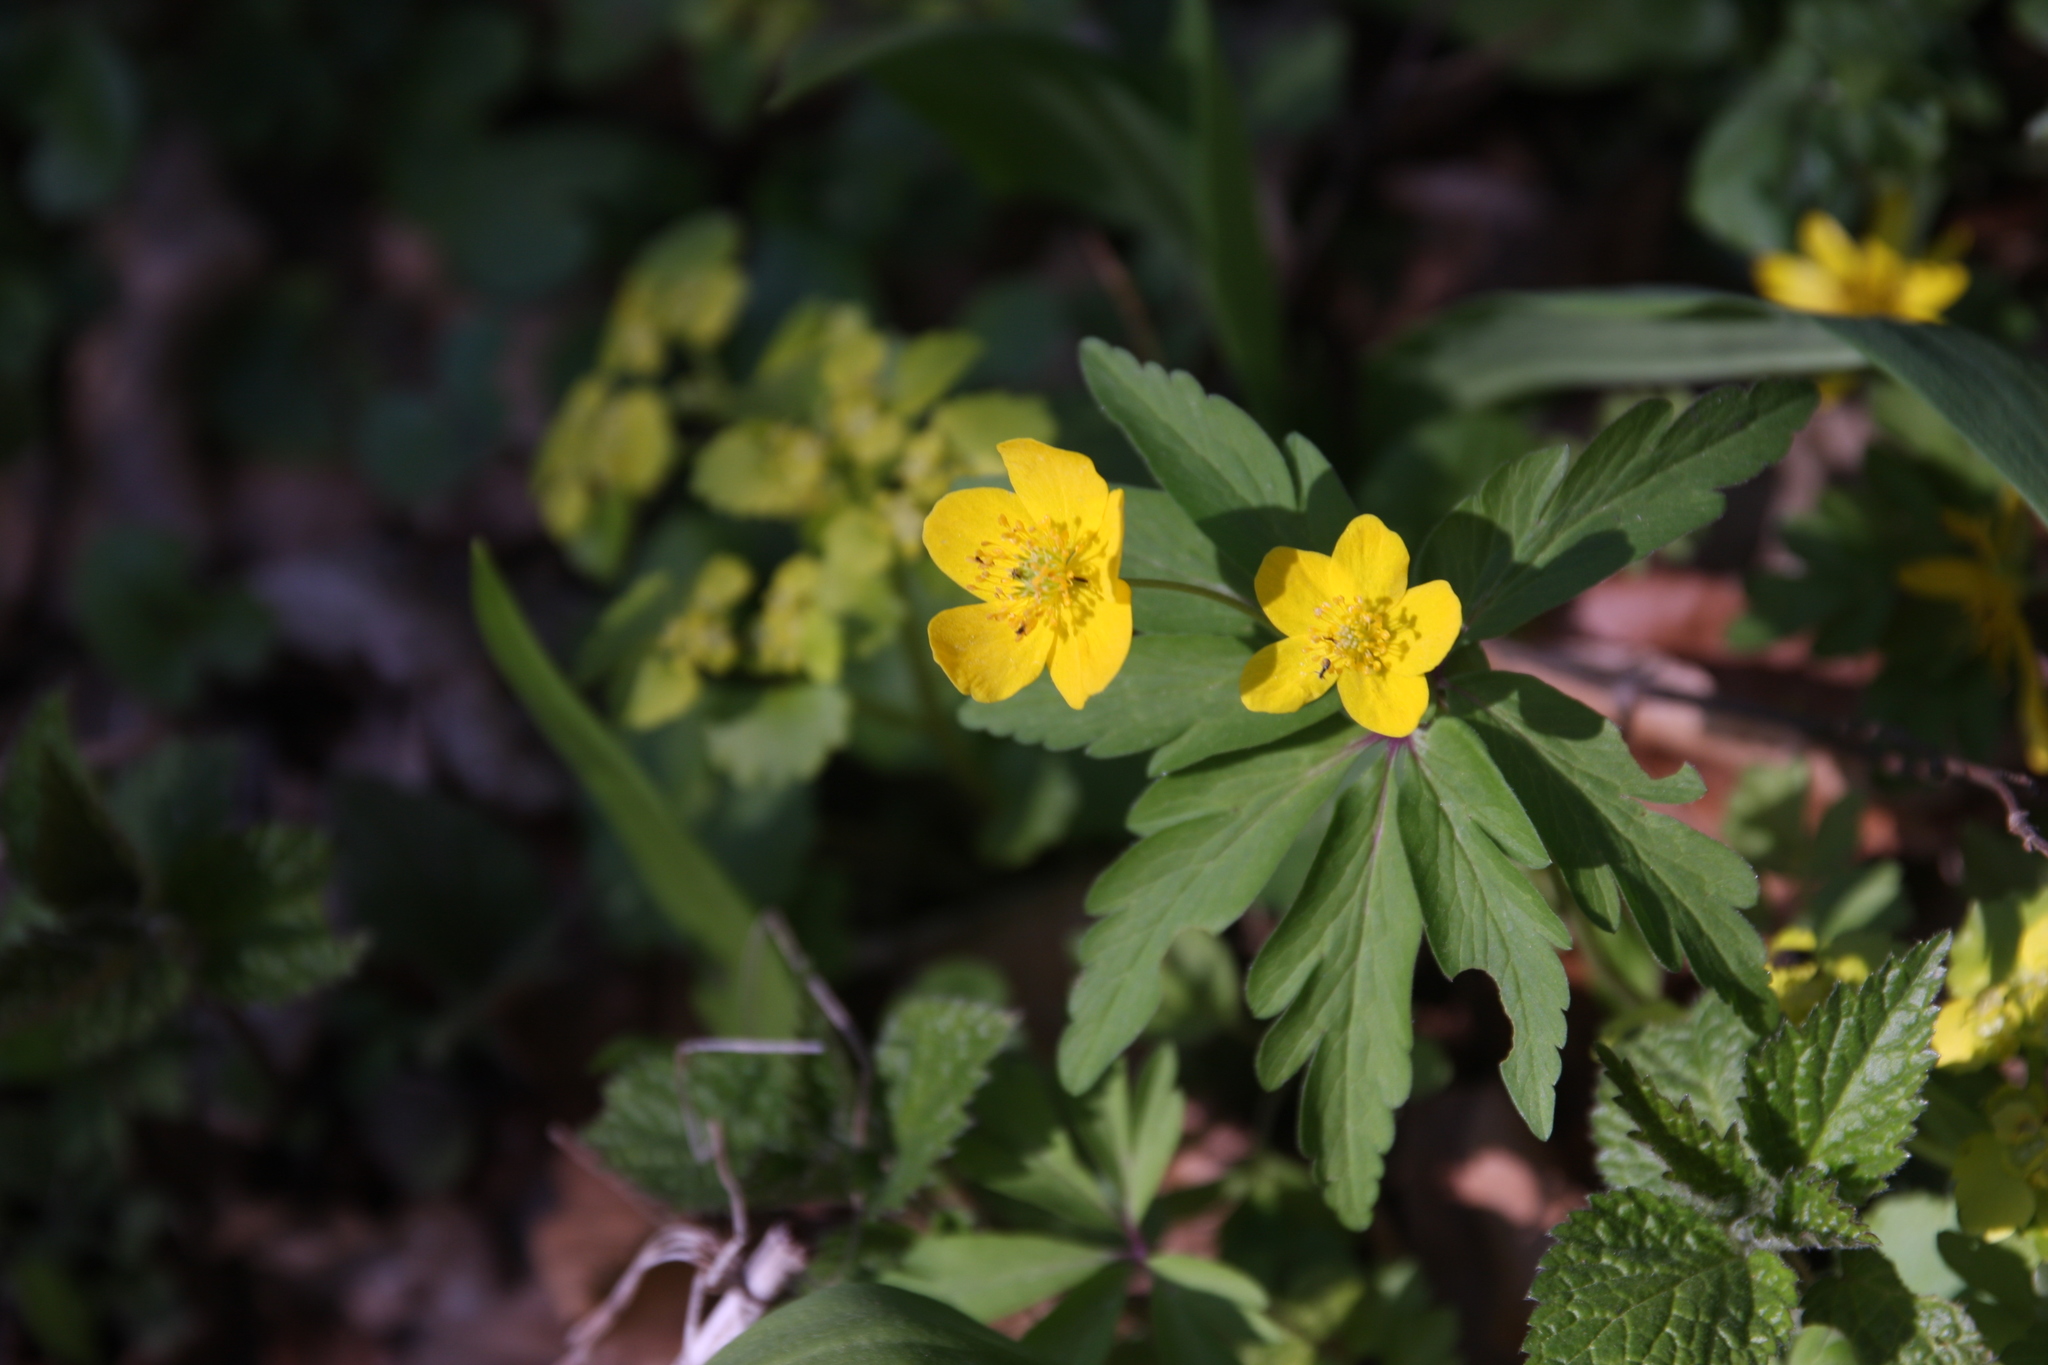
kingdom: Plantae
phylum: Tracheophyta
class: Magnoliopsida
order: Ranunculales
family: Ranunculaceae
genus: Anemone
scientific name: Anemone ranunculoides
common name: Yellow anemone
